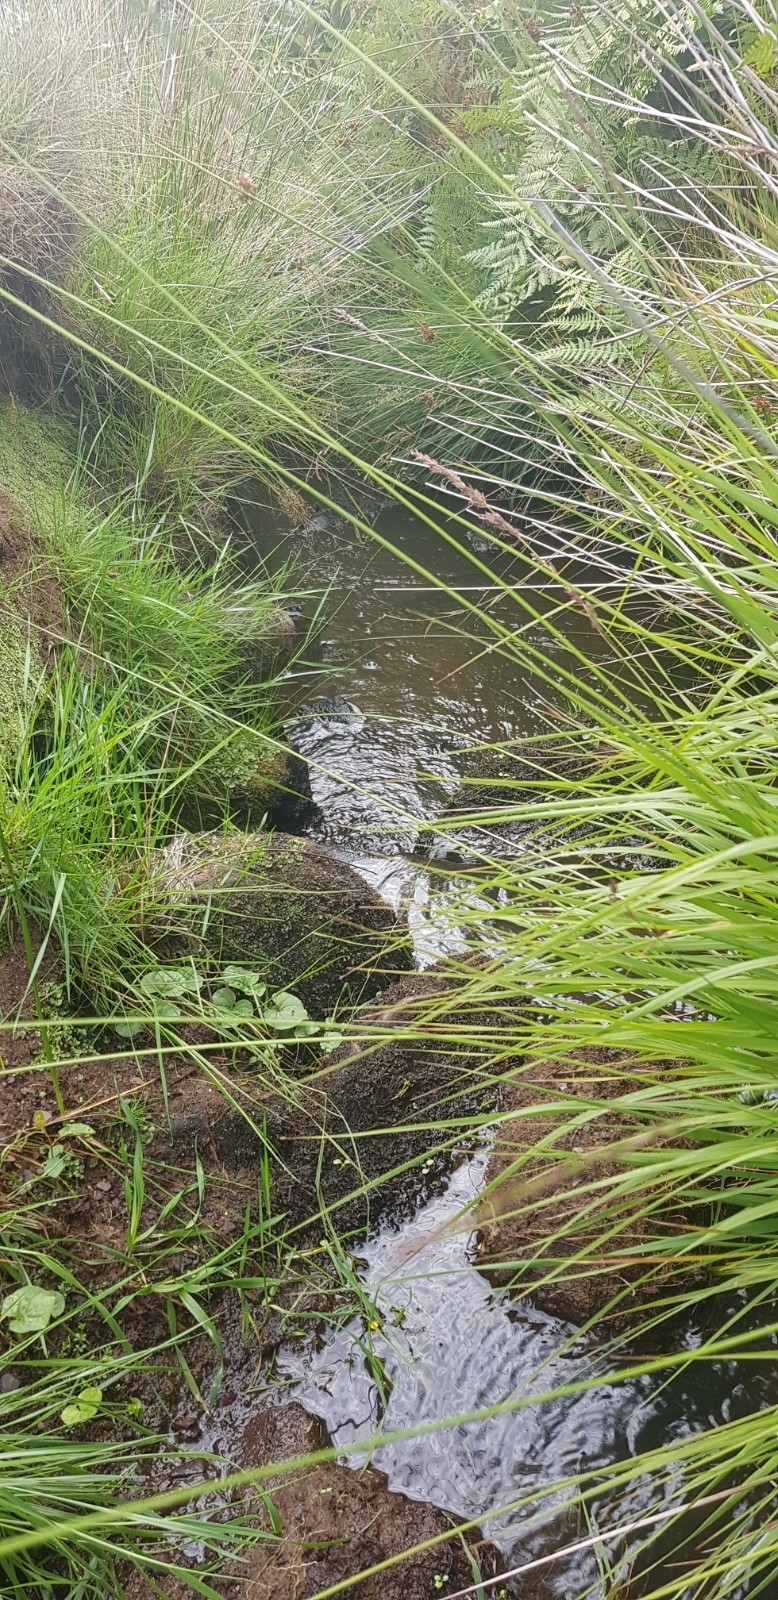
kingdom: Plantae
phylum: Marchantiophyta
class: Jungermanniopsida
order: Pelliales
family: Pelliaceae
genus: Pellia
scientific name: Pellia neesiana
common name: Nees  pellia
